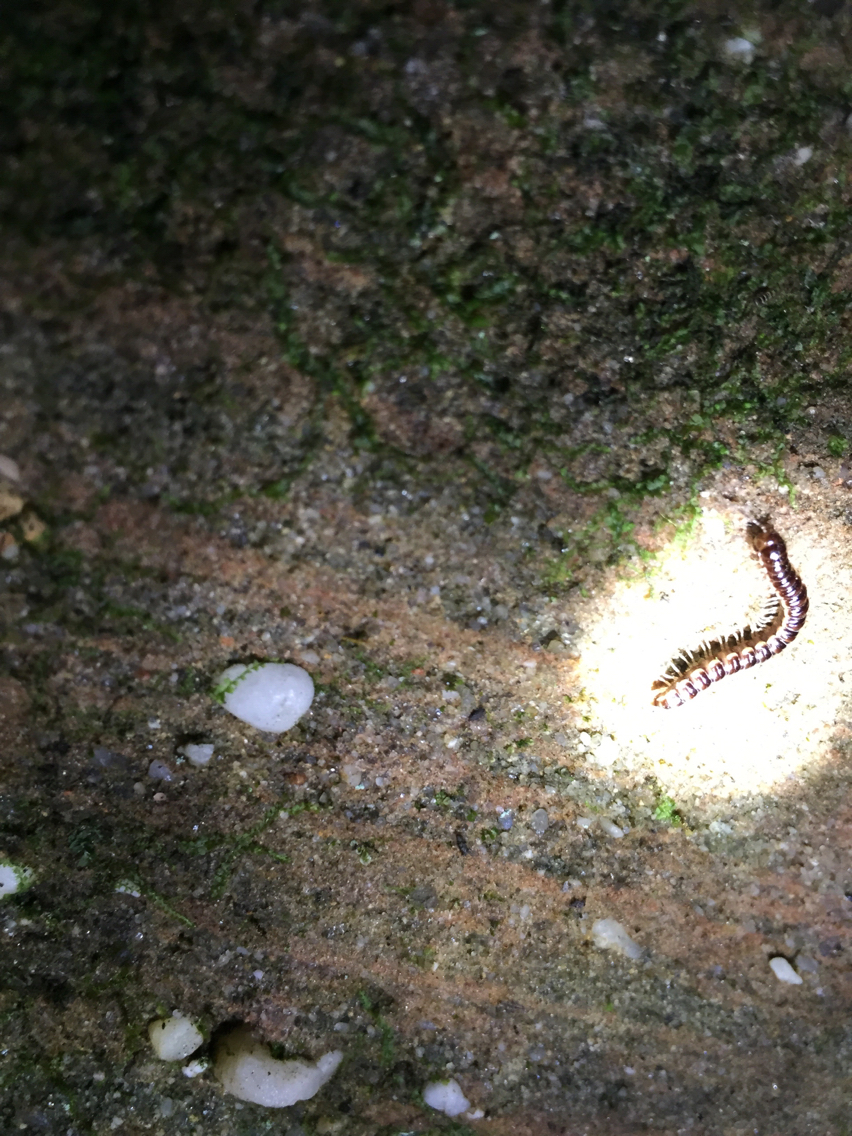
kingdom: Animalia
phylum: Arthropoda
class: Diplopoda
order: Polydesmida
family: Paradoxosomatidae
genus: Oxidus
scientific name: Oxidus gracilis
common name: Greenhouse millipede
